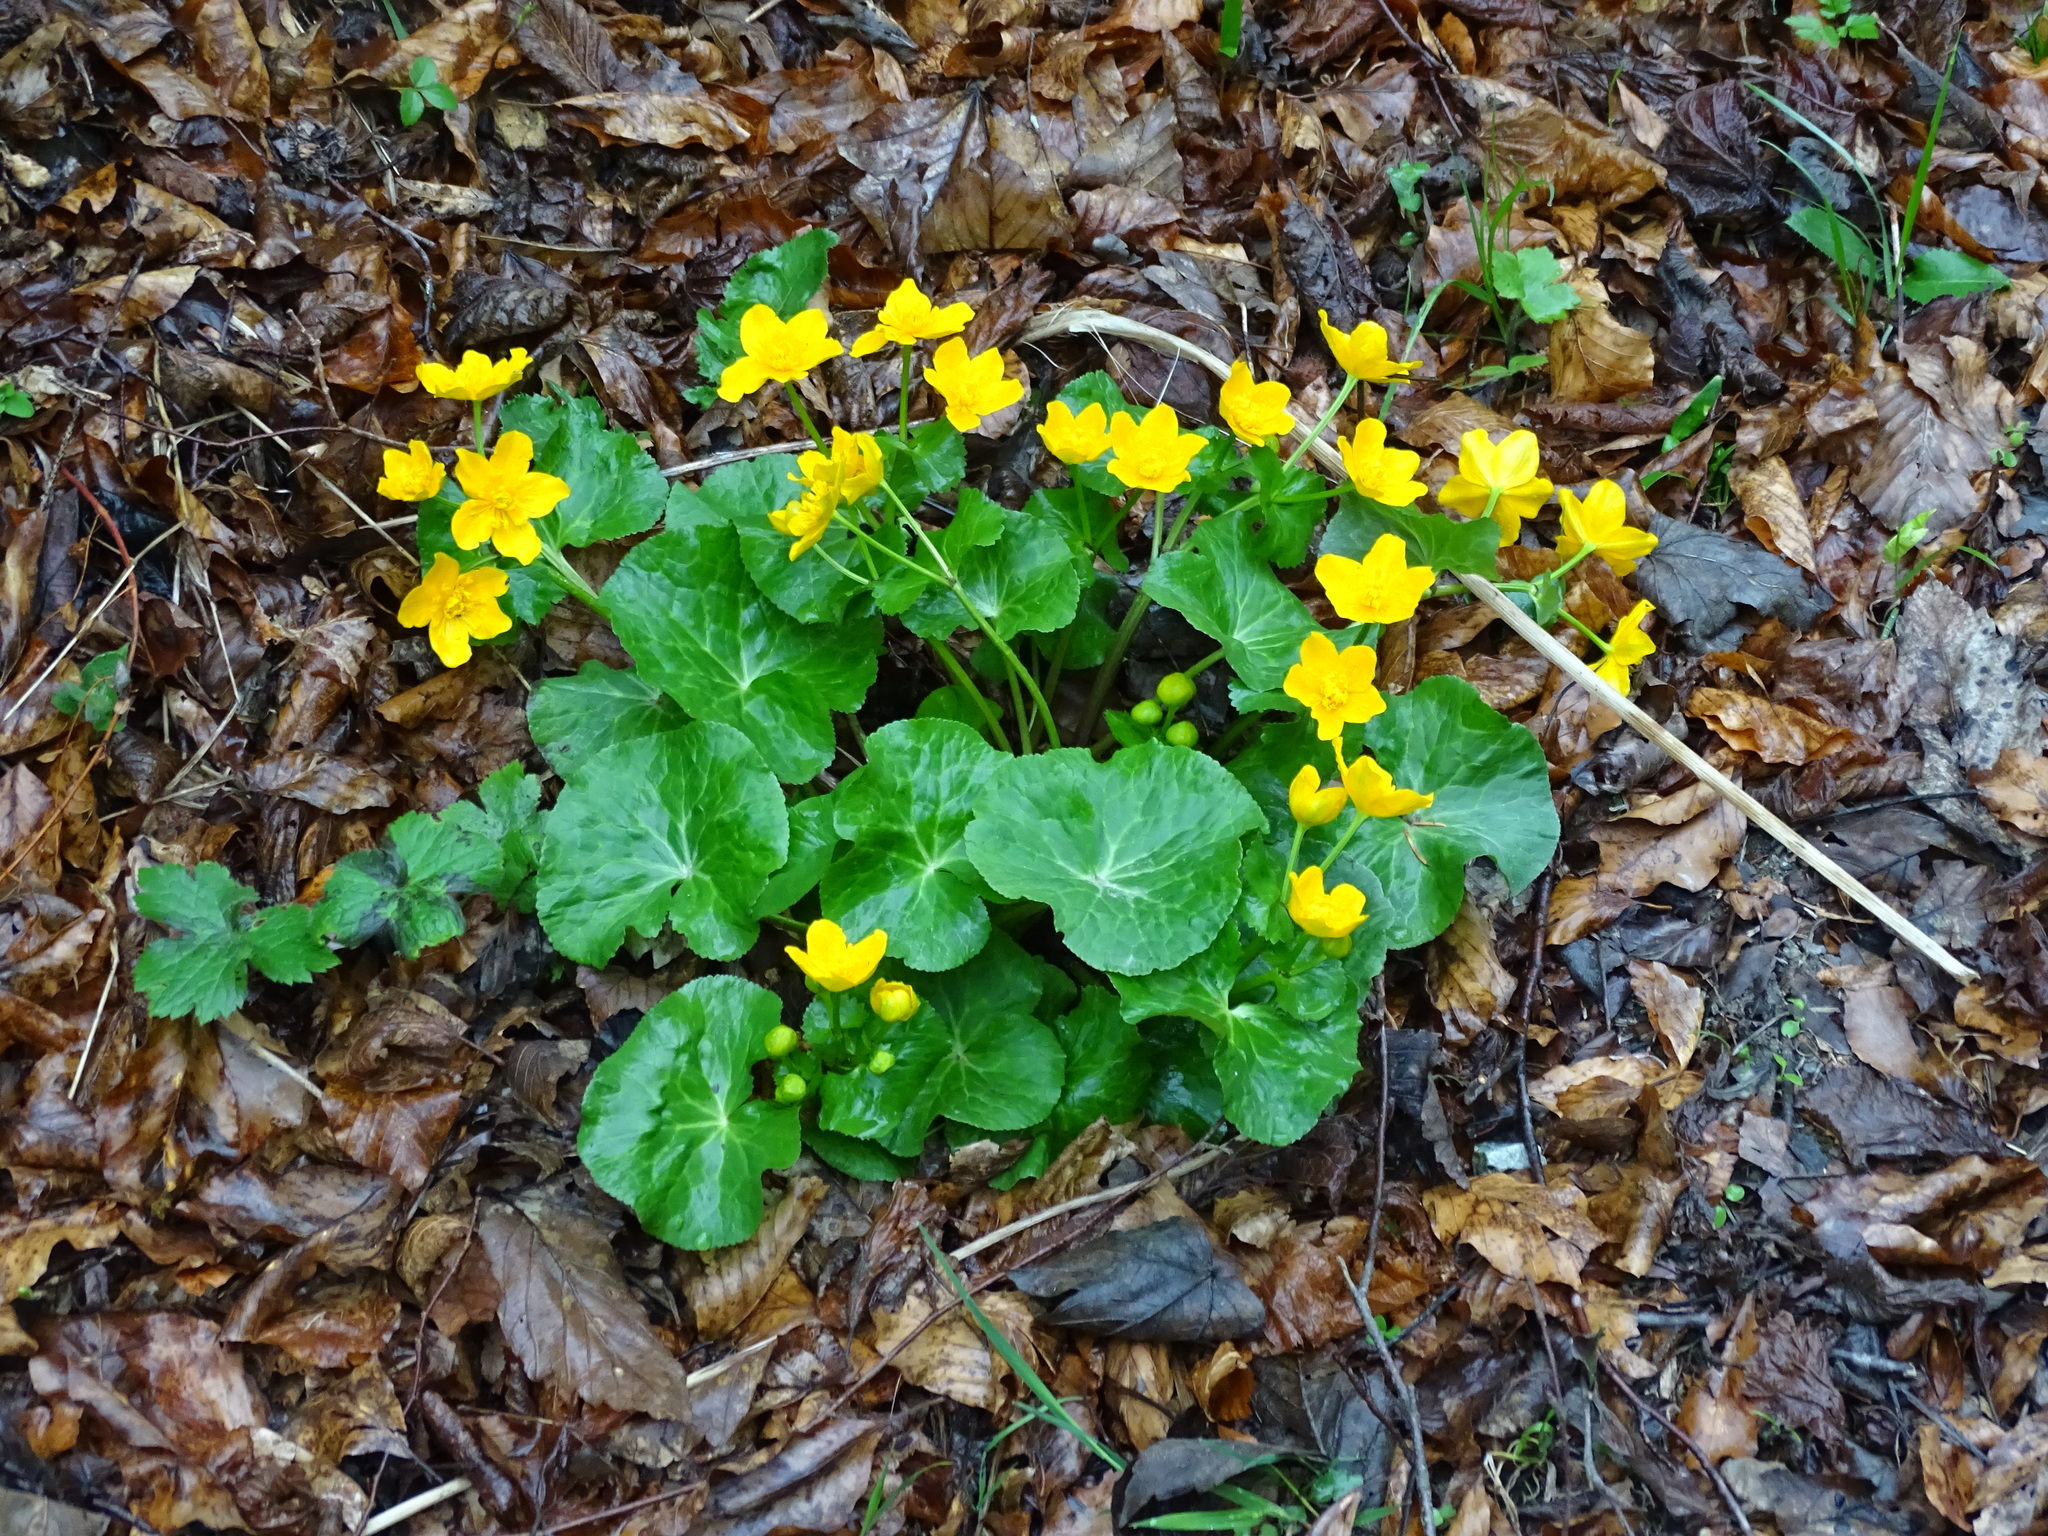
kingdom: Plantae
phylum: Tracheophyta
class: Magnoliopsida
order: Ranunculales
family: Ranunculaceae
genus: Caltha
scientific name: Caltha palustris
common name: Marsh marigold
